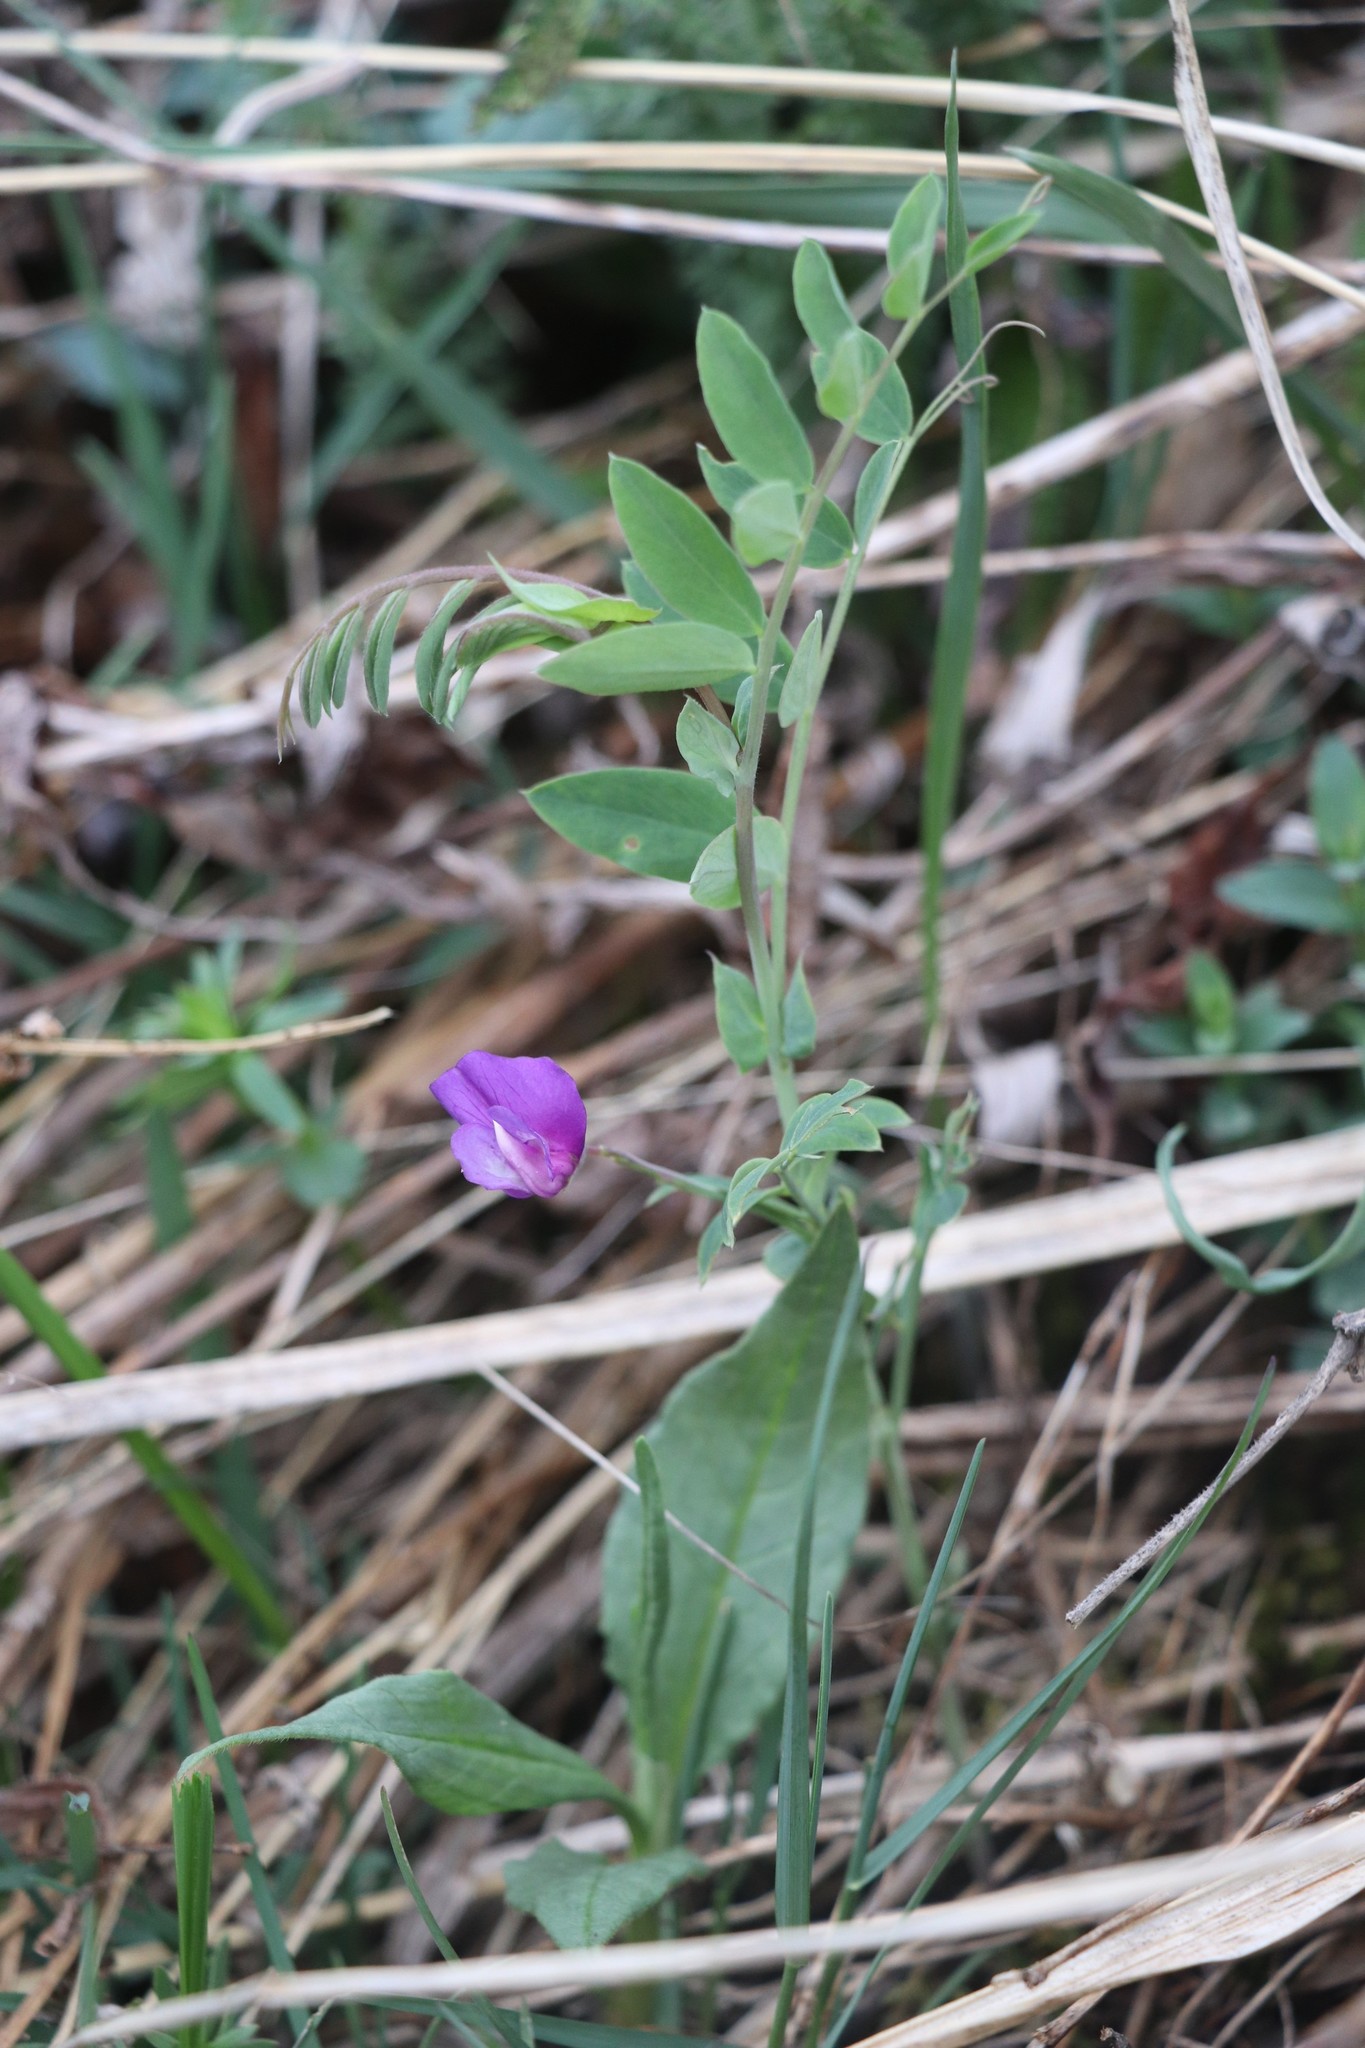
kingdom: Plantae
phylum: Tracheophyta
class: Magnoliopsida
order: Fabales
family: Fabaceae
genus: Lathyrus
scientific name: Lathyrus humilis
